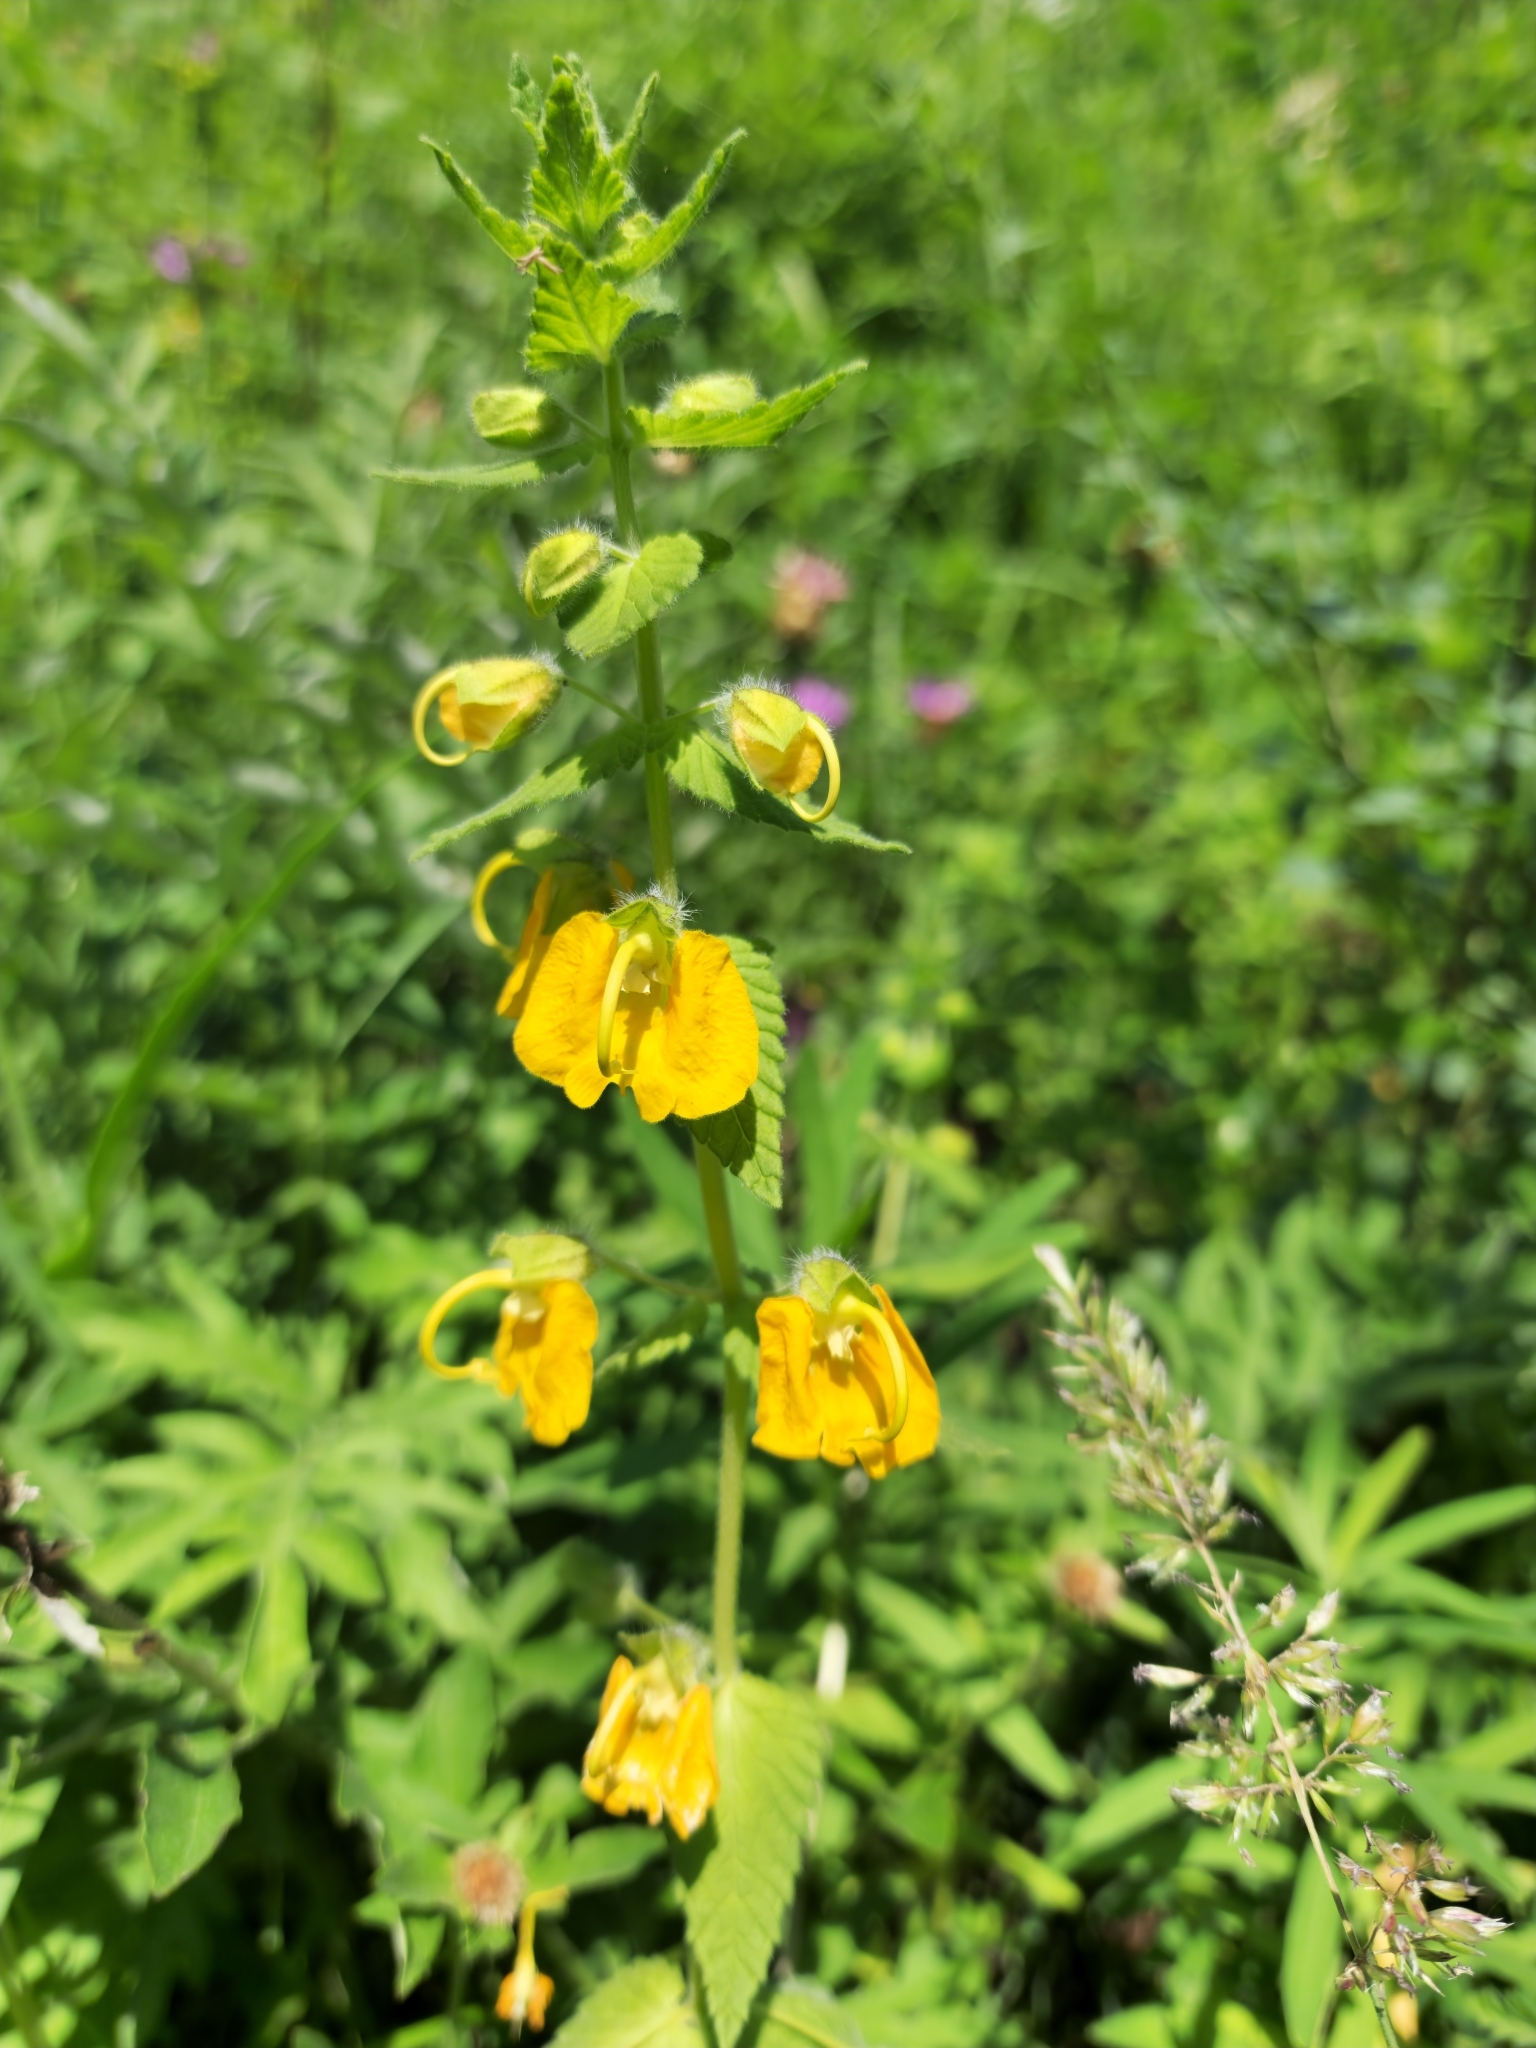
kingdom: Plantae
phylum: Tracheophyta
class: Magnoliopsida
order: Lamiales
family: Orobanchaceae
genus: Rhynchocorys
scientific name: Rhynchocorys orientalis
